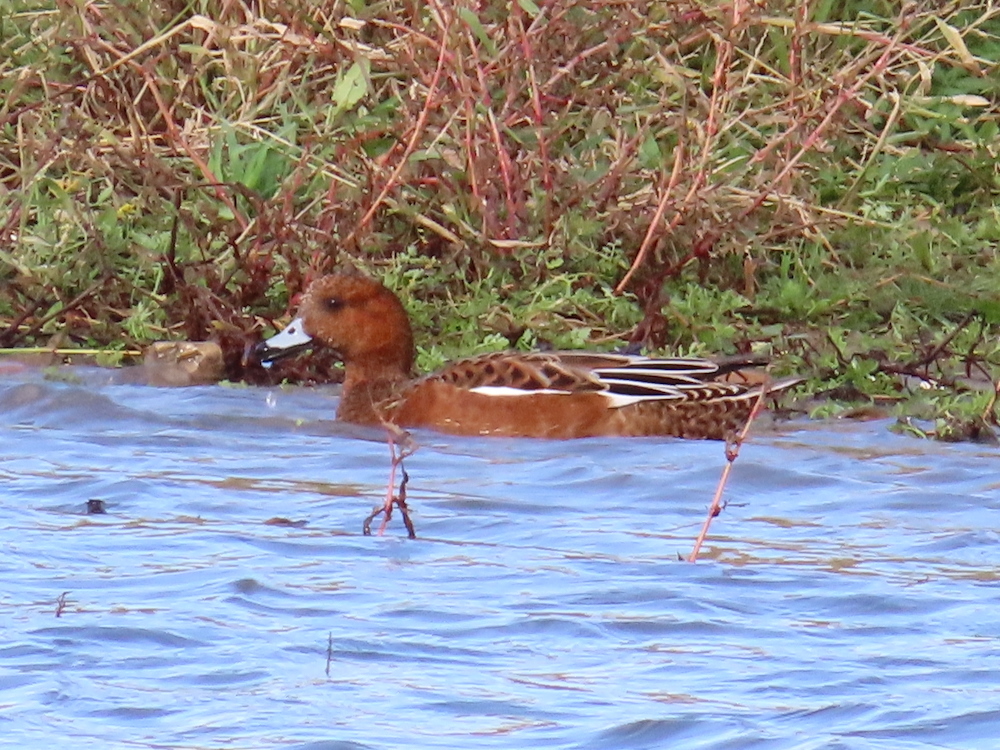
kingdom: Animalia
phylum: Chordata
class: Aves
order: Anseriformes
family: Anatidae
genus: Mareca
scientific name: Mareca penelope
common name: Eurasian wigeon
